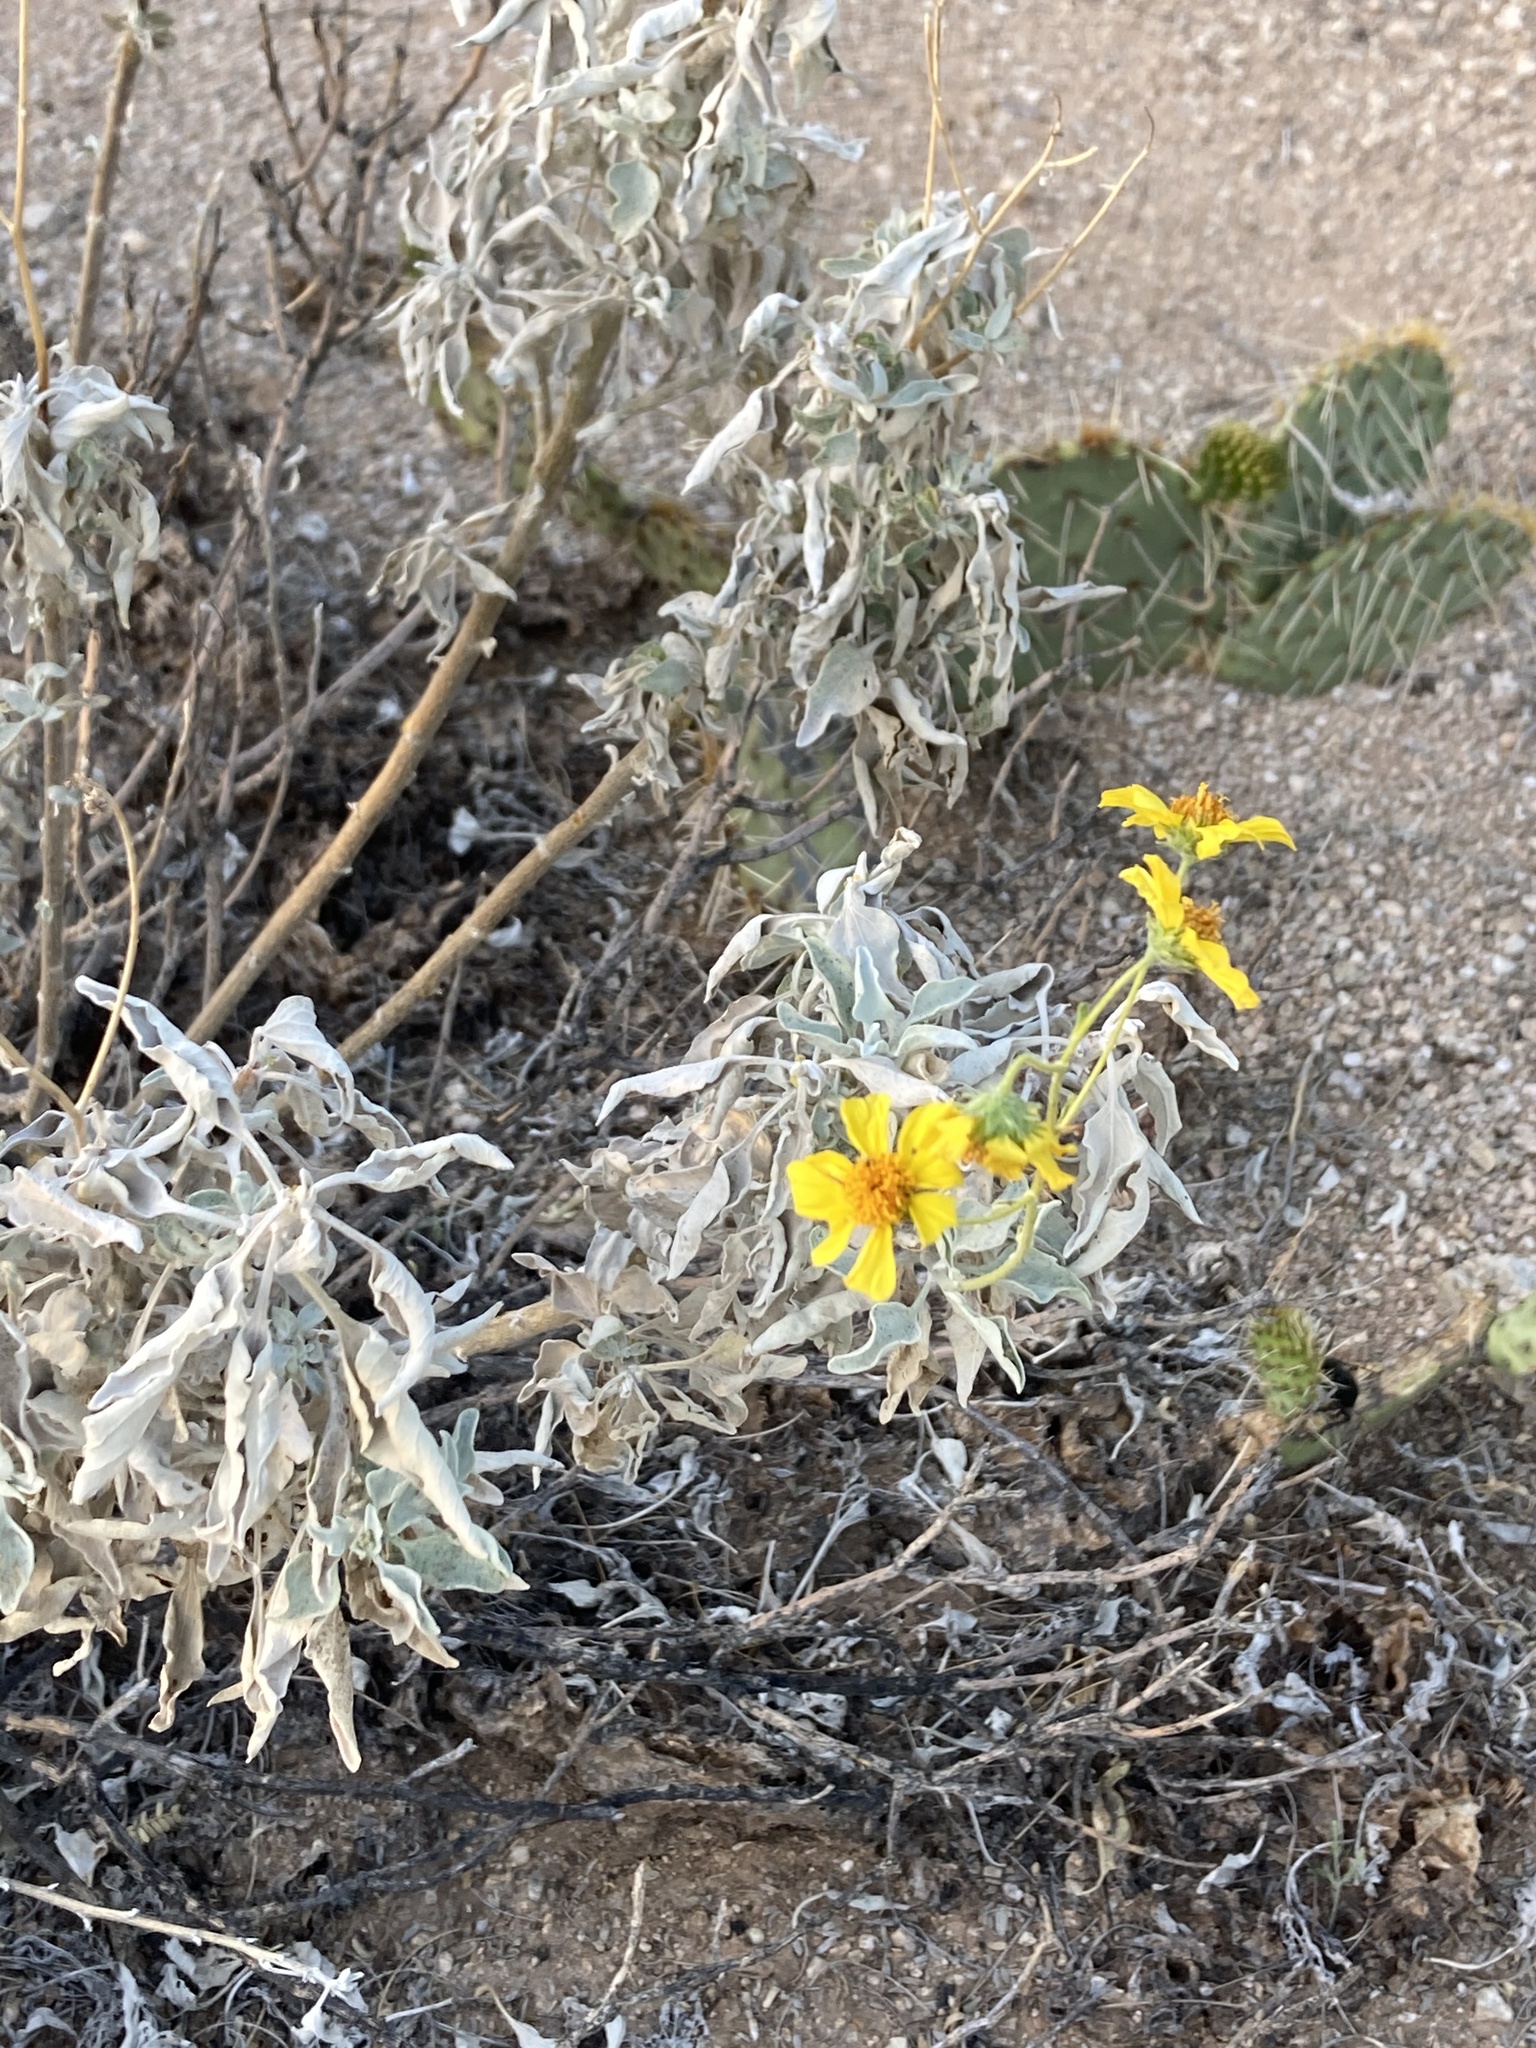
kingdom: Plantae
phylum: Tracheophyta
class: Magnoliopsida
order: Asterales
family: Asteraceae
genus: Encelia
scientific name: Encelia farinosa
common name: Brittlebush
